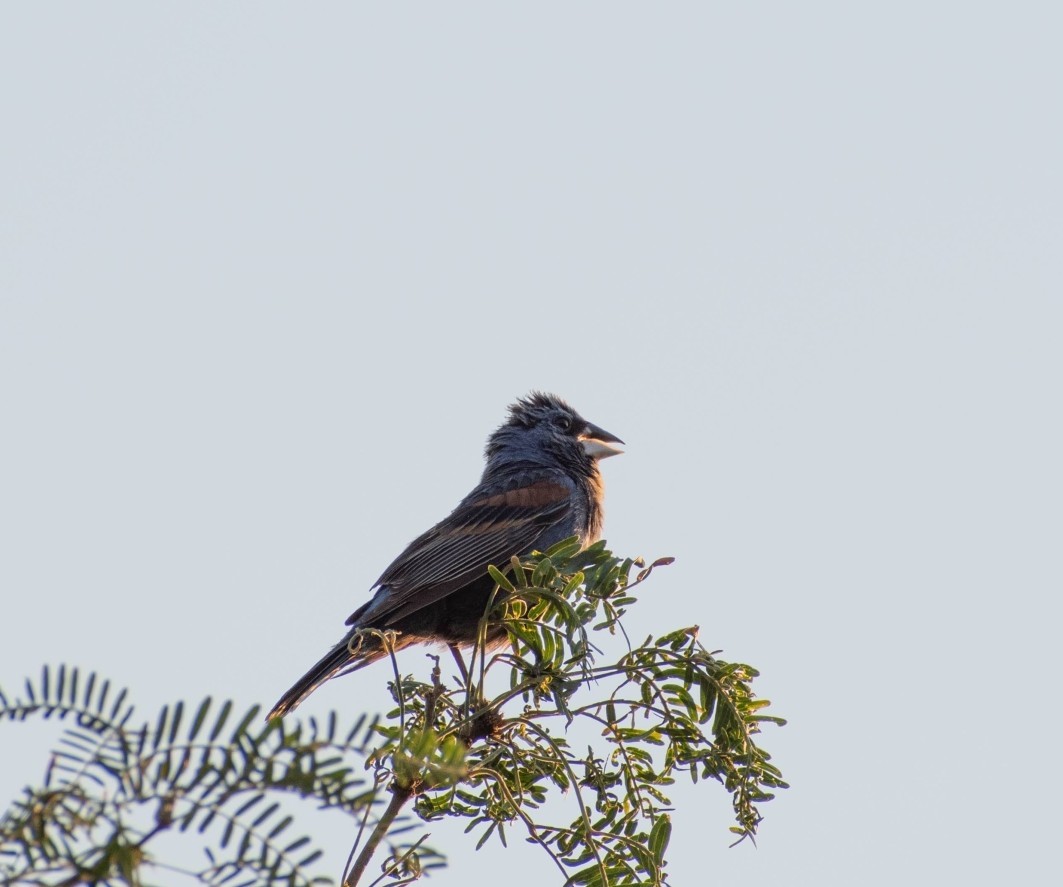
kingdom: Animalia
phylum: Chordata
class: Aves
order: Passeriformes
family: Cardinalidae
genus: Passerina
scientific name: Passerina caerulea
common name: Blue grosbeak
